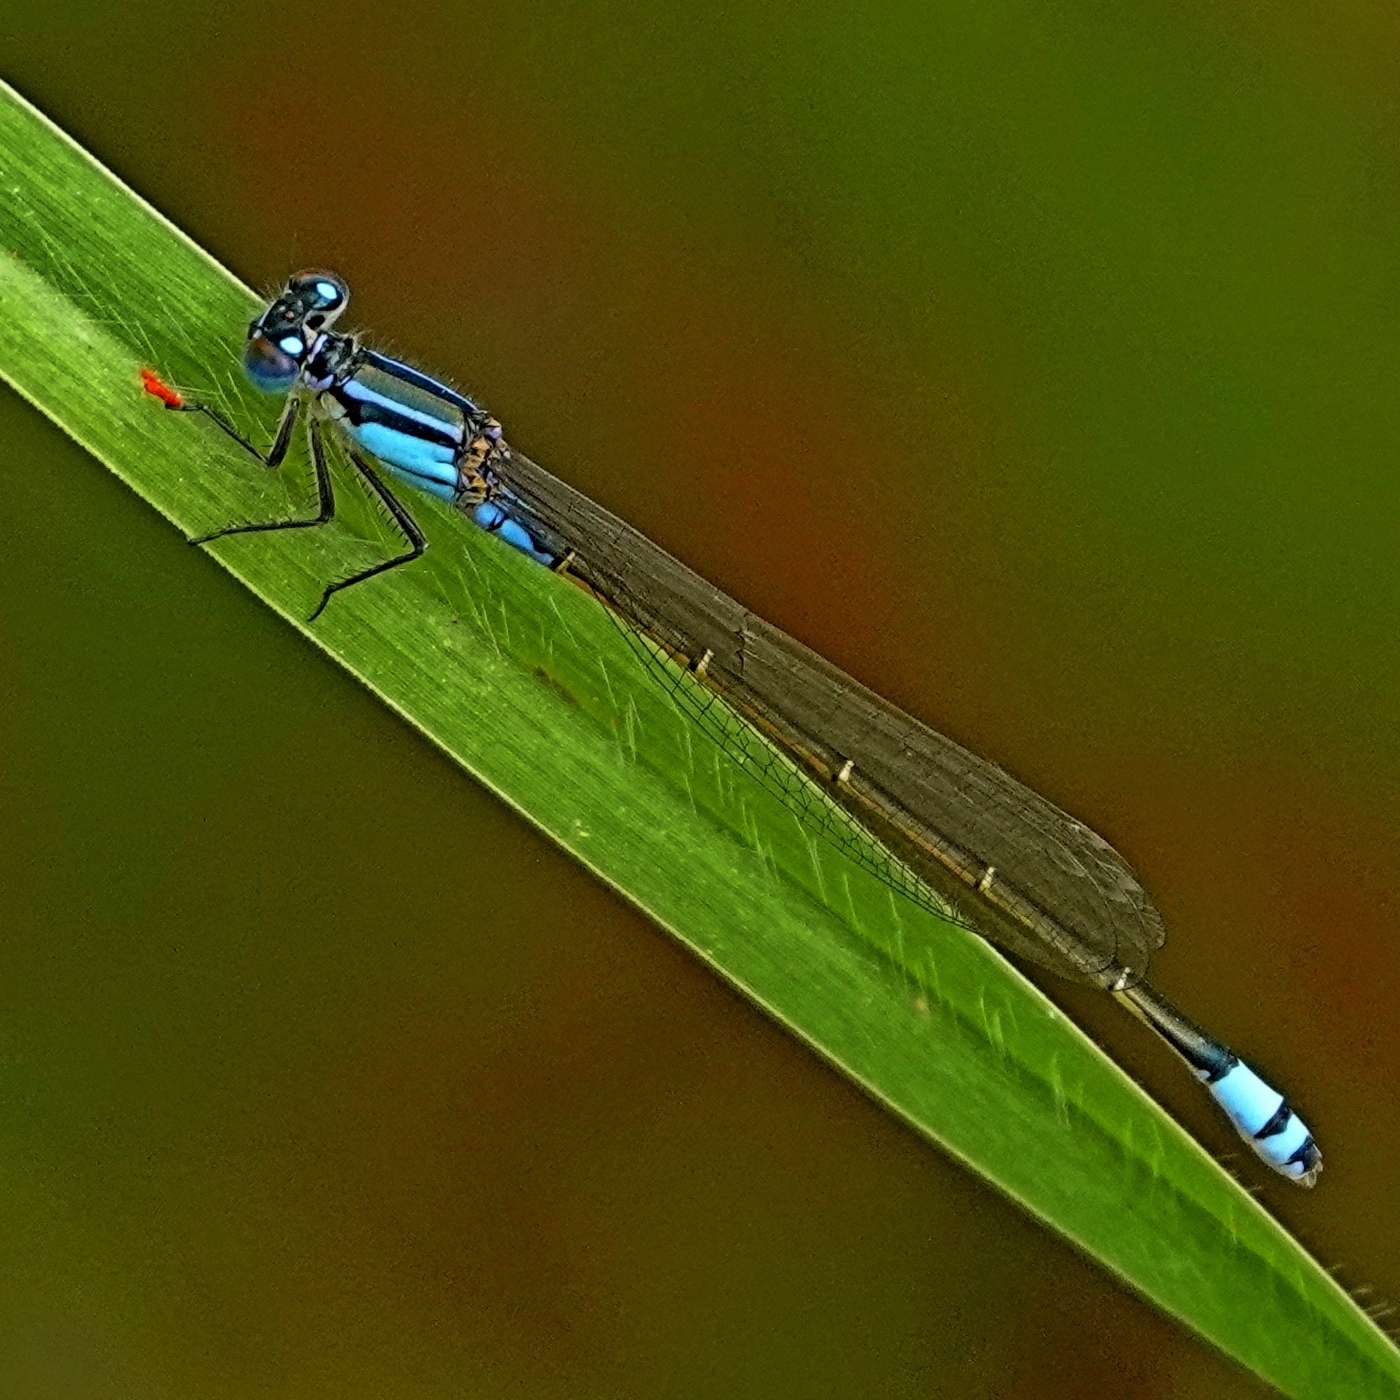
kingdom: Animalia
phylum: Arthropoda
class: Insecta
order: Odonata
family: Coenagrionidae
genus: Ischnura
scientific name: Ischnura heterosticta
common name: Common bluetail
